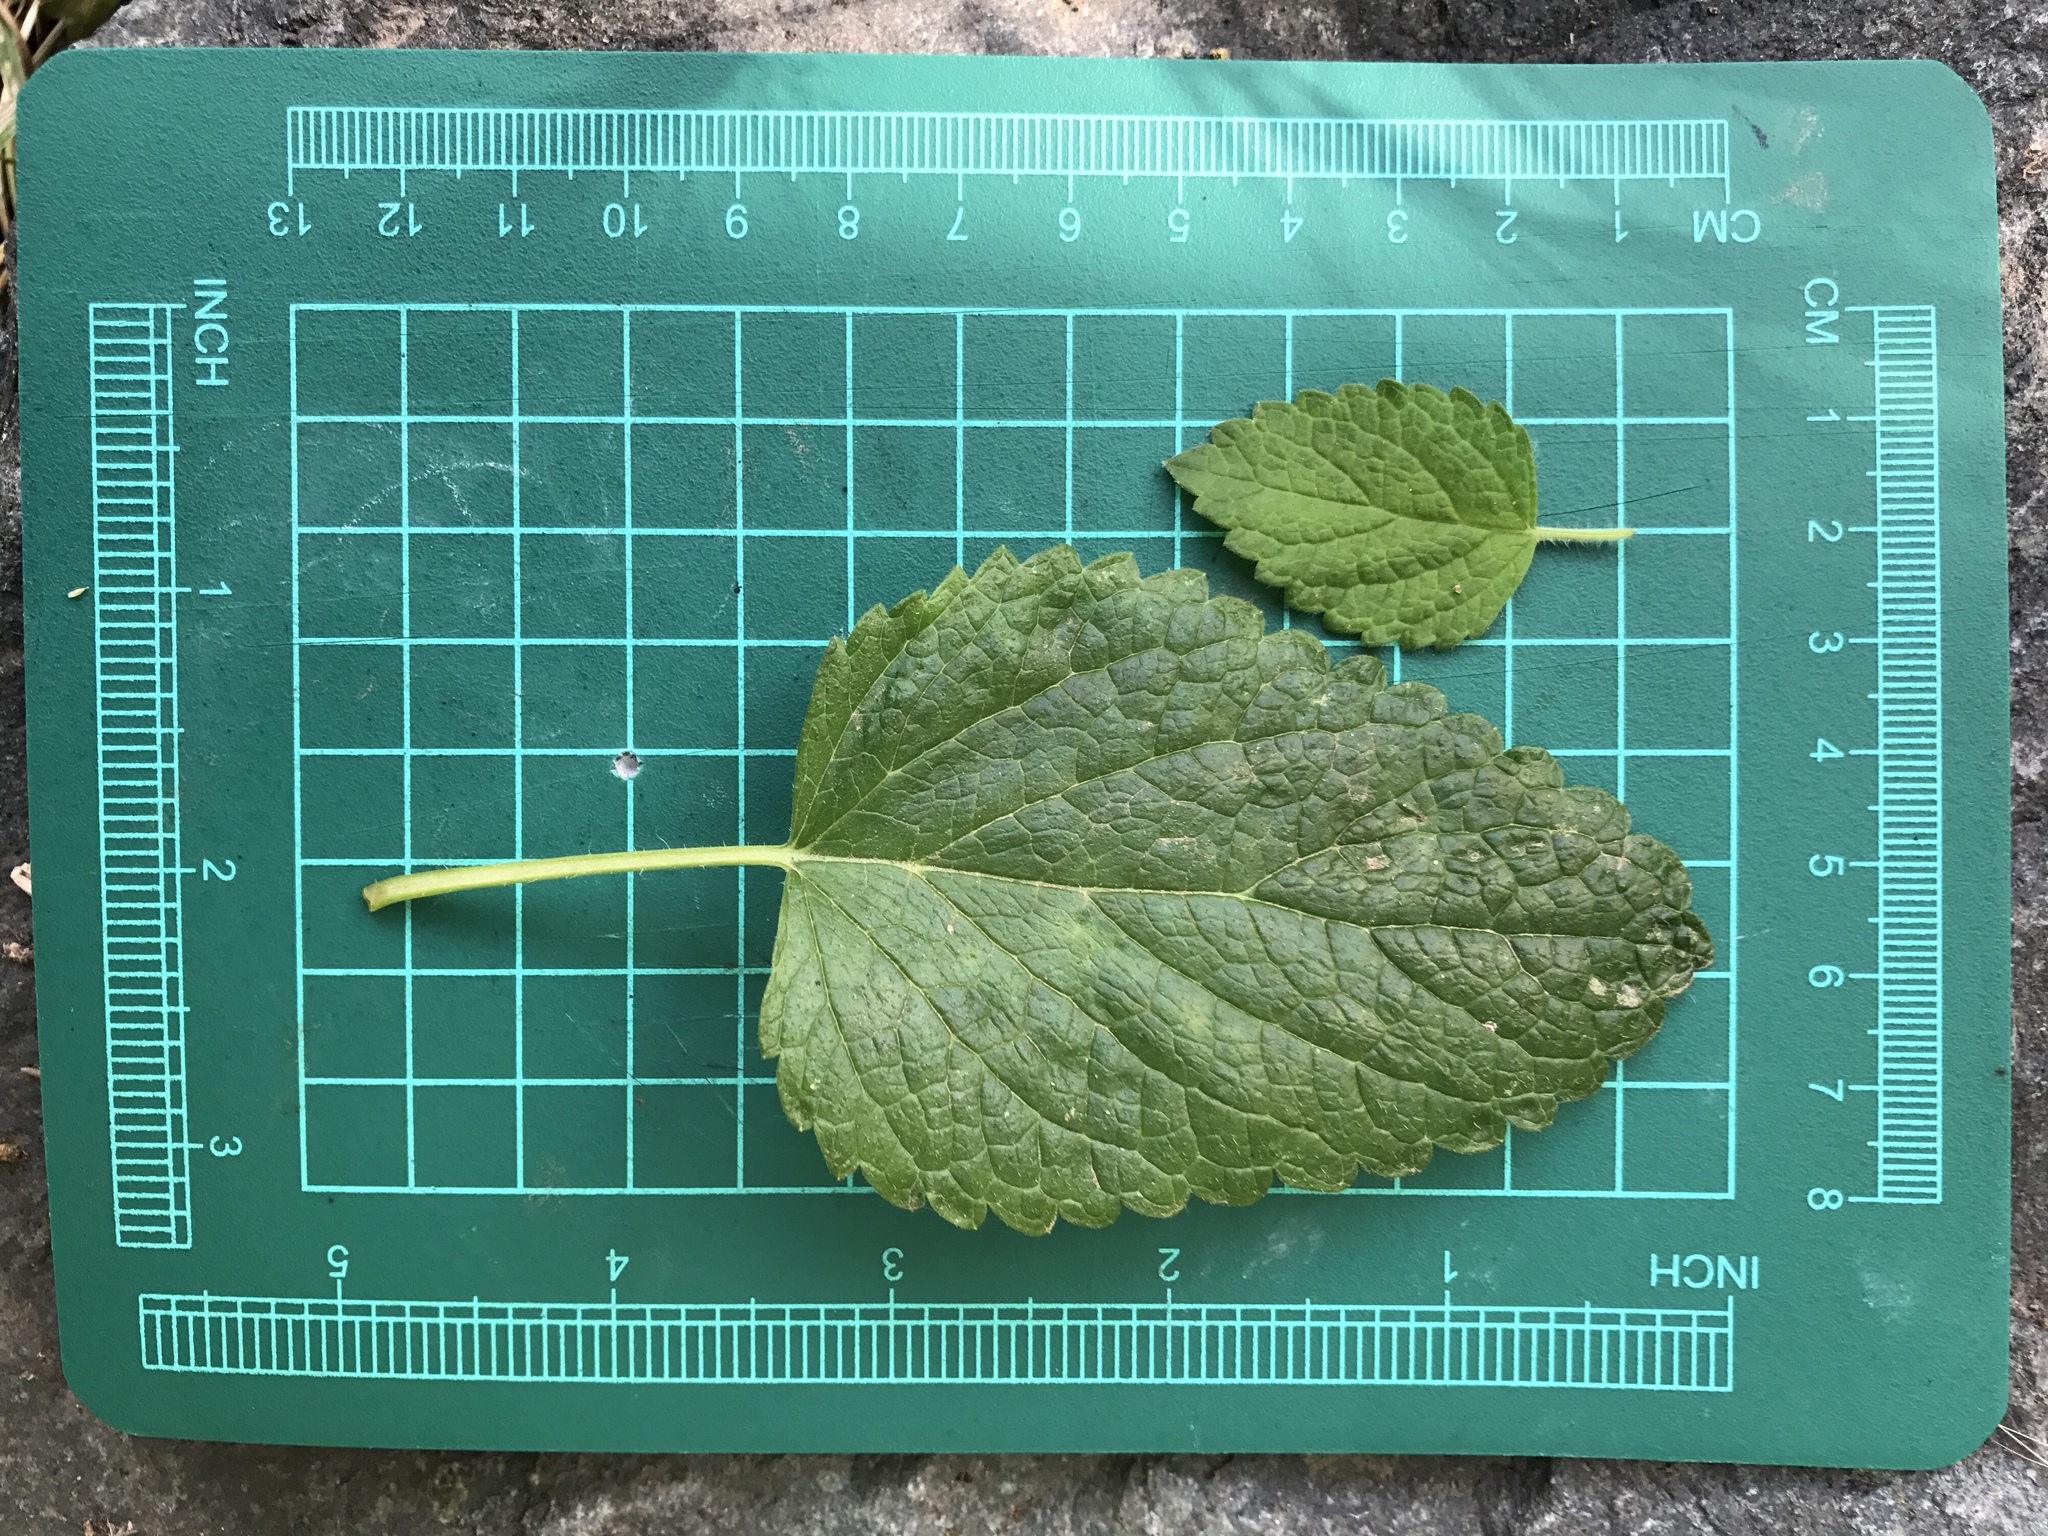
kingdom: Plantae
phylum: Tracheophyta
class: Magnoliopsida
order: Lamiales
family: Lamiaceae
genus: Melissa
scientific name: Melissa officinalis
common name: Balm
